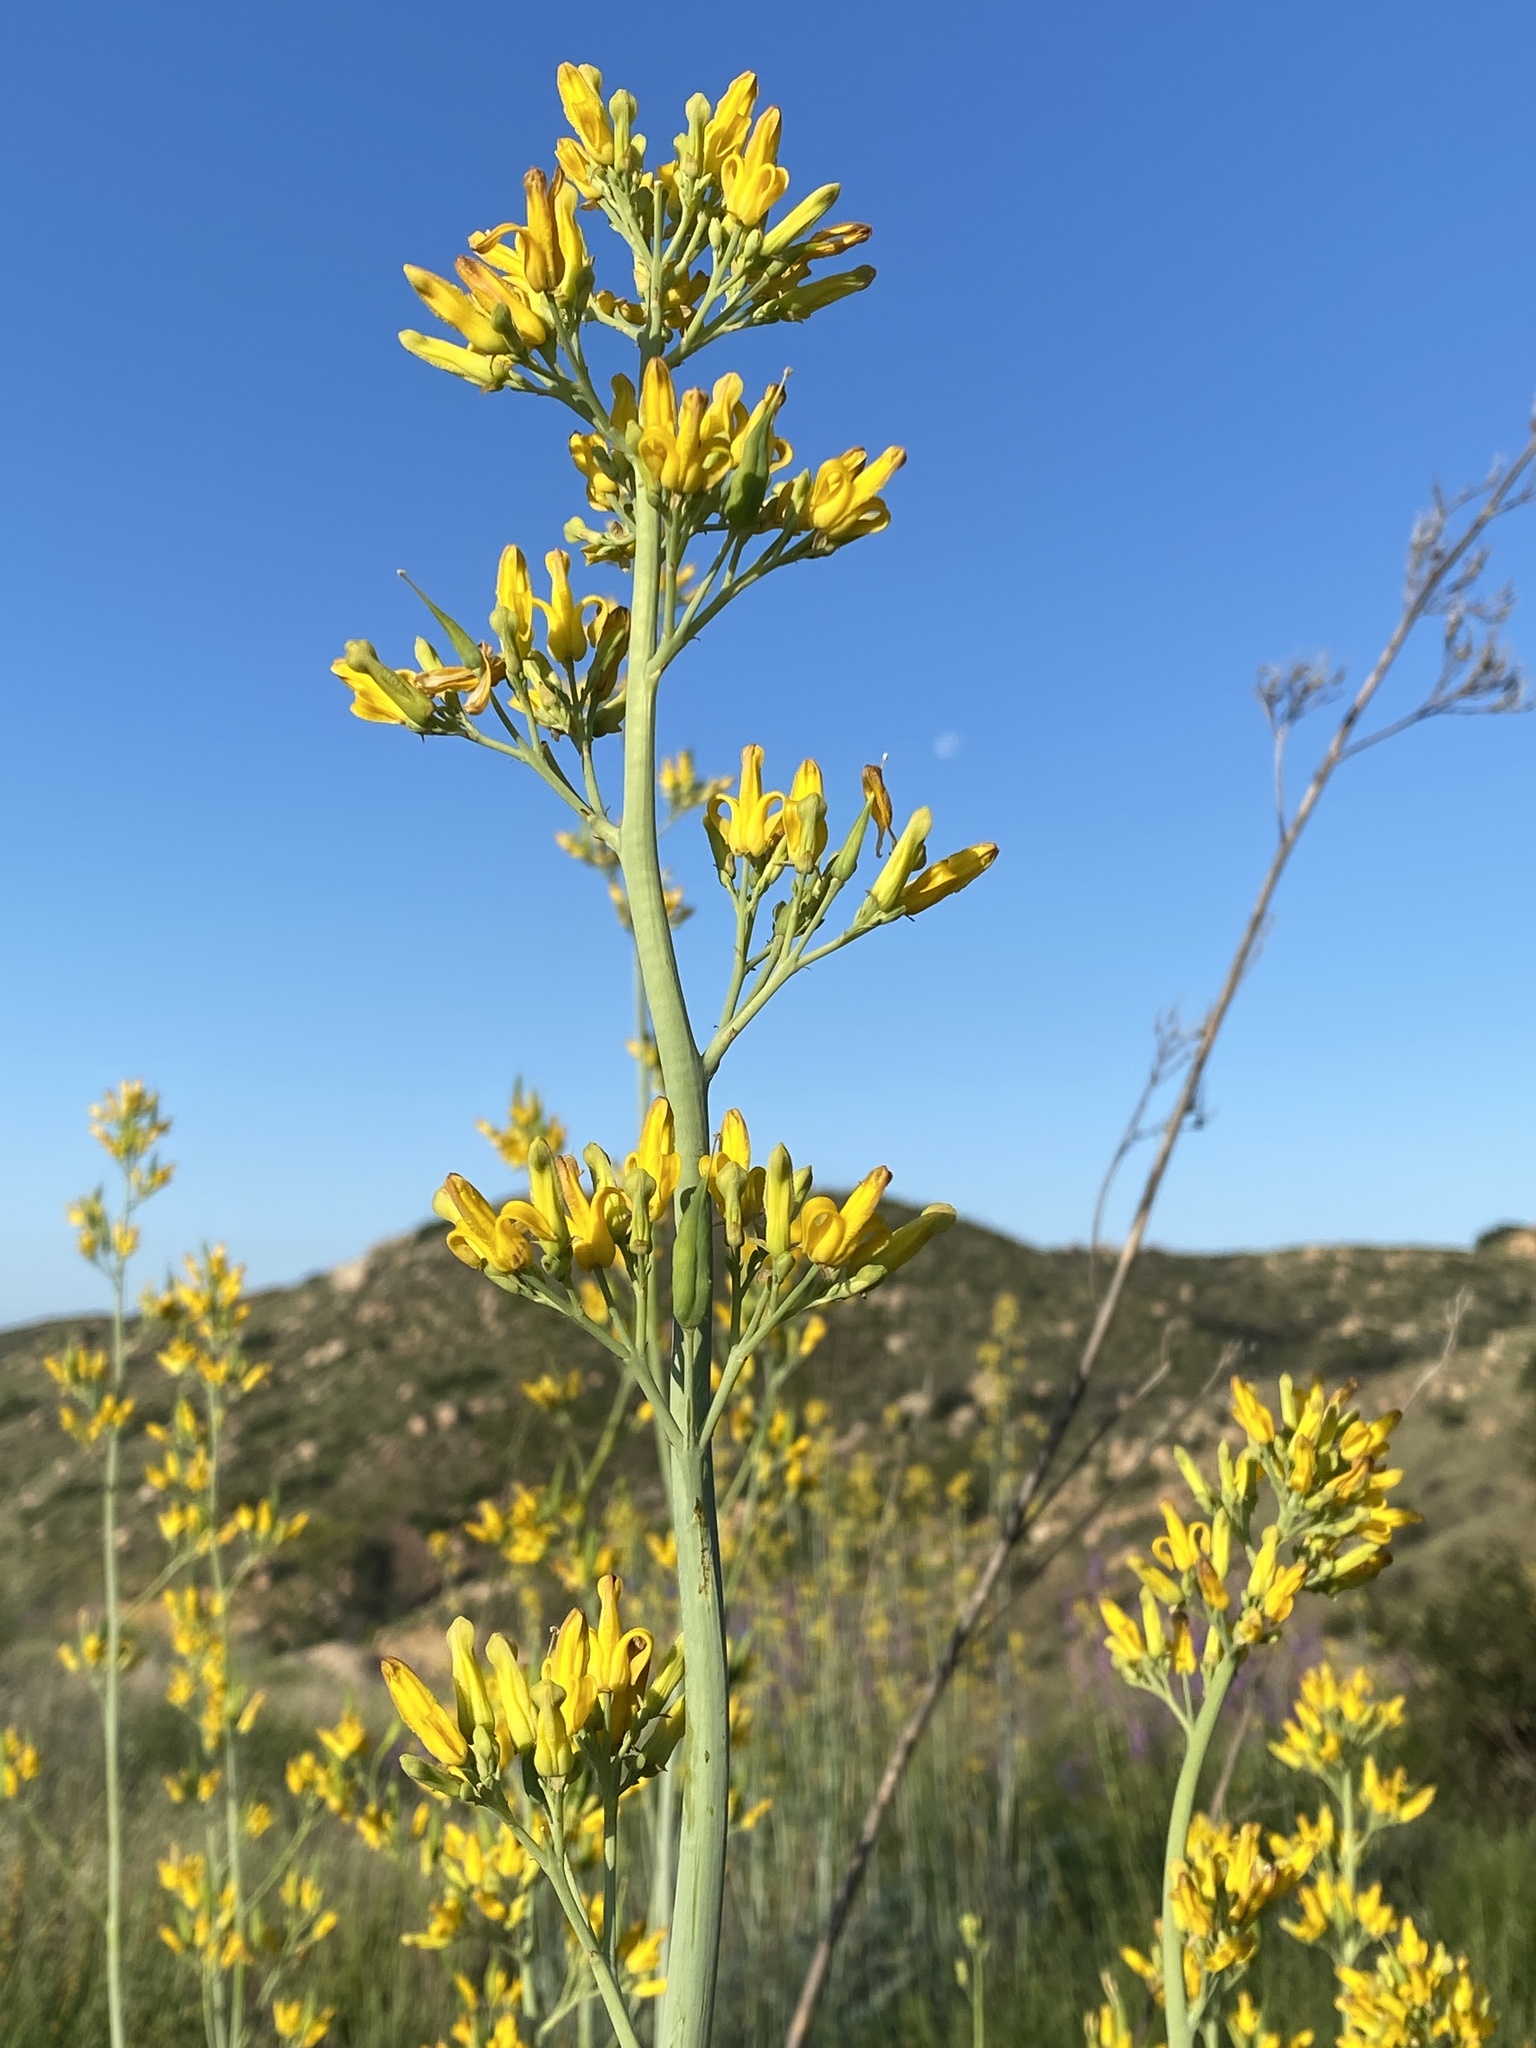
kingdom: Plantae
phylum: Tracheophyta
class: Magnoliopsida
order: Ranunculales
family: Papaveraceae
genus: Ehrendorferia
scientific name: Ehrendorferia chrysantha
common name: Golden eardrops
